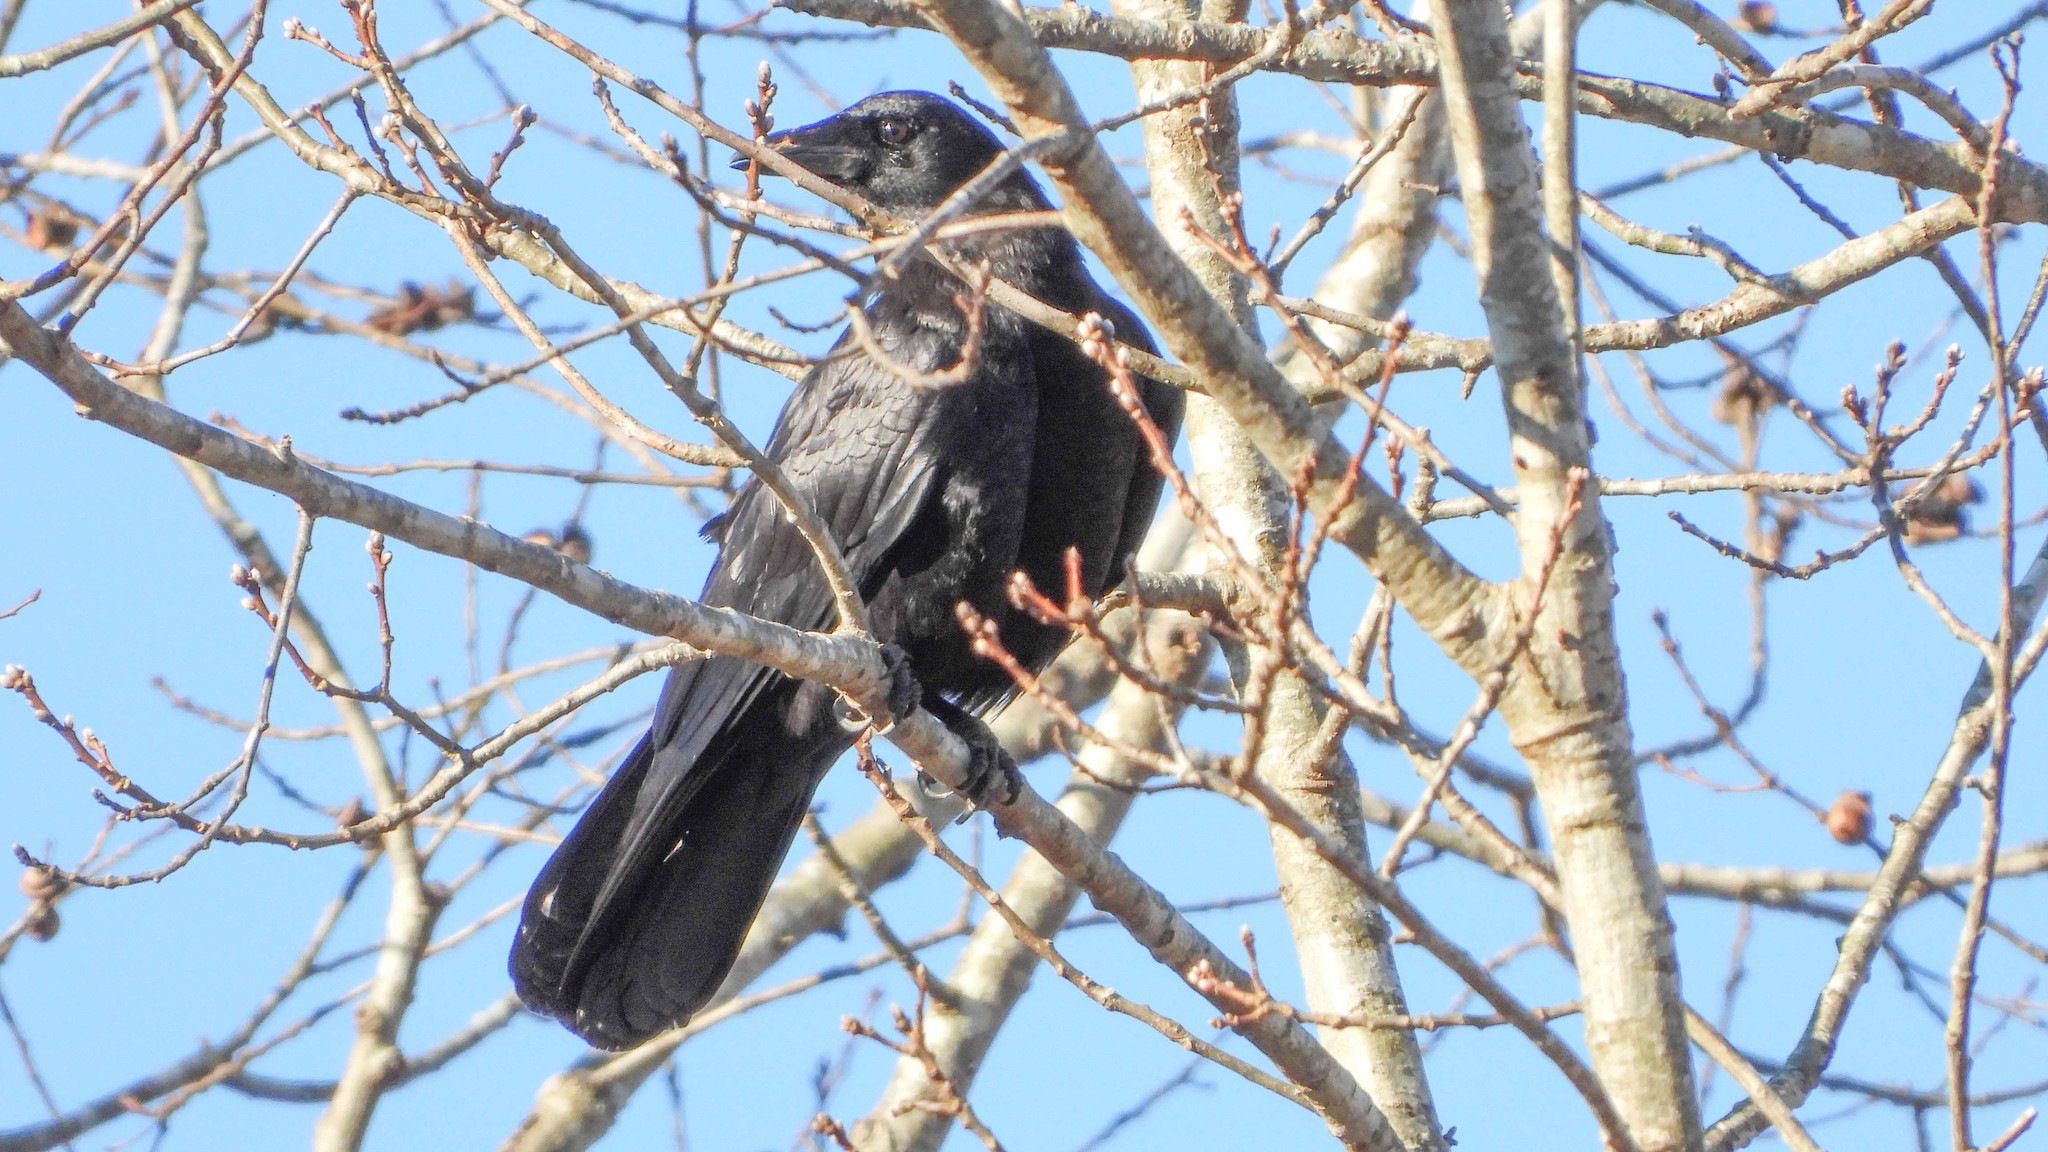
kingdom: Animalia
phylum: Chordata
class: Aves
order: Passeriformes
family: Corvidae
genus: Corvus
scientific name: Corvus brachyrhynchos
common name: American crow
